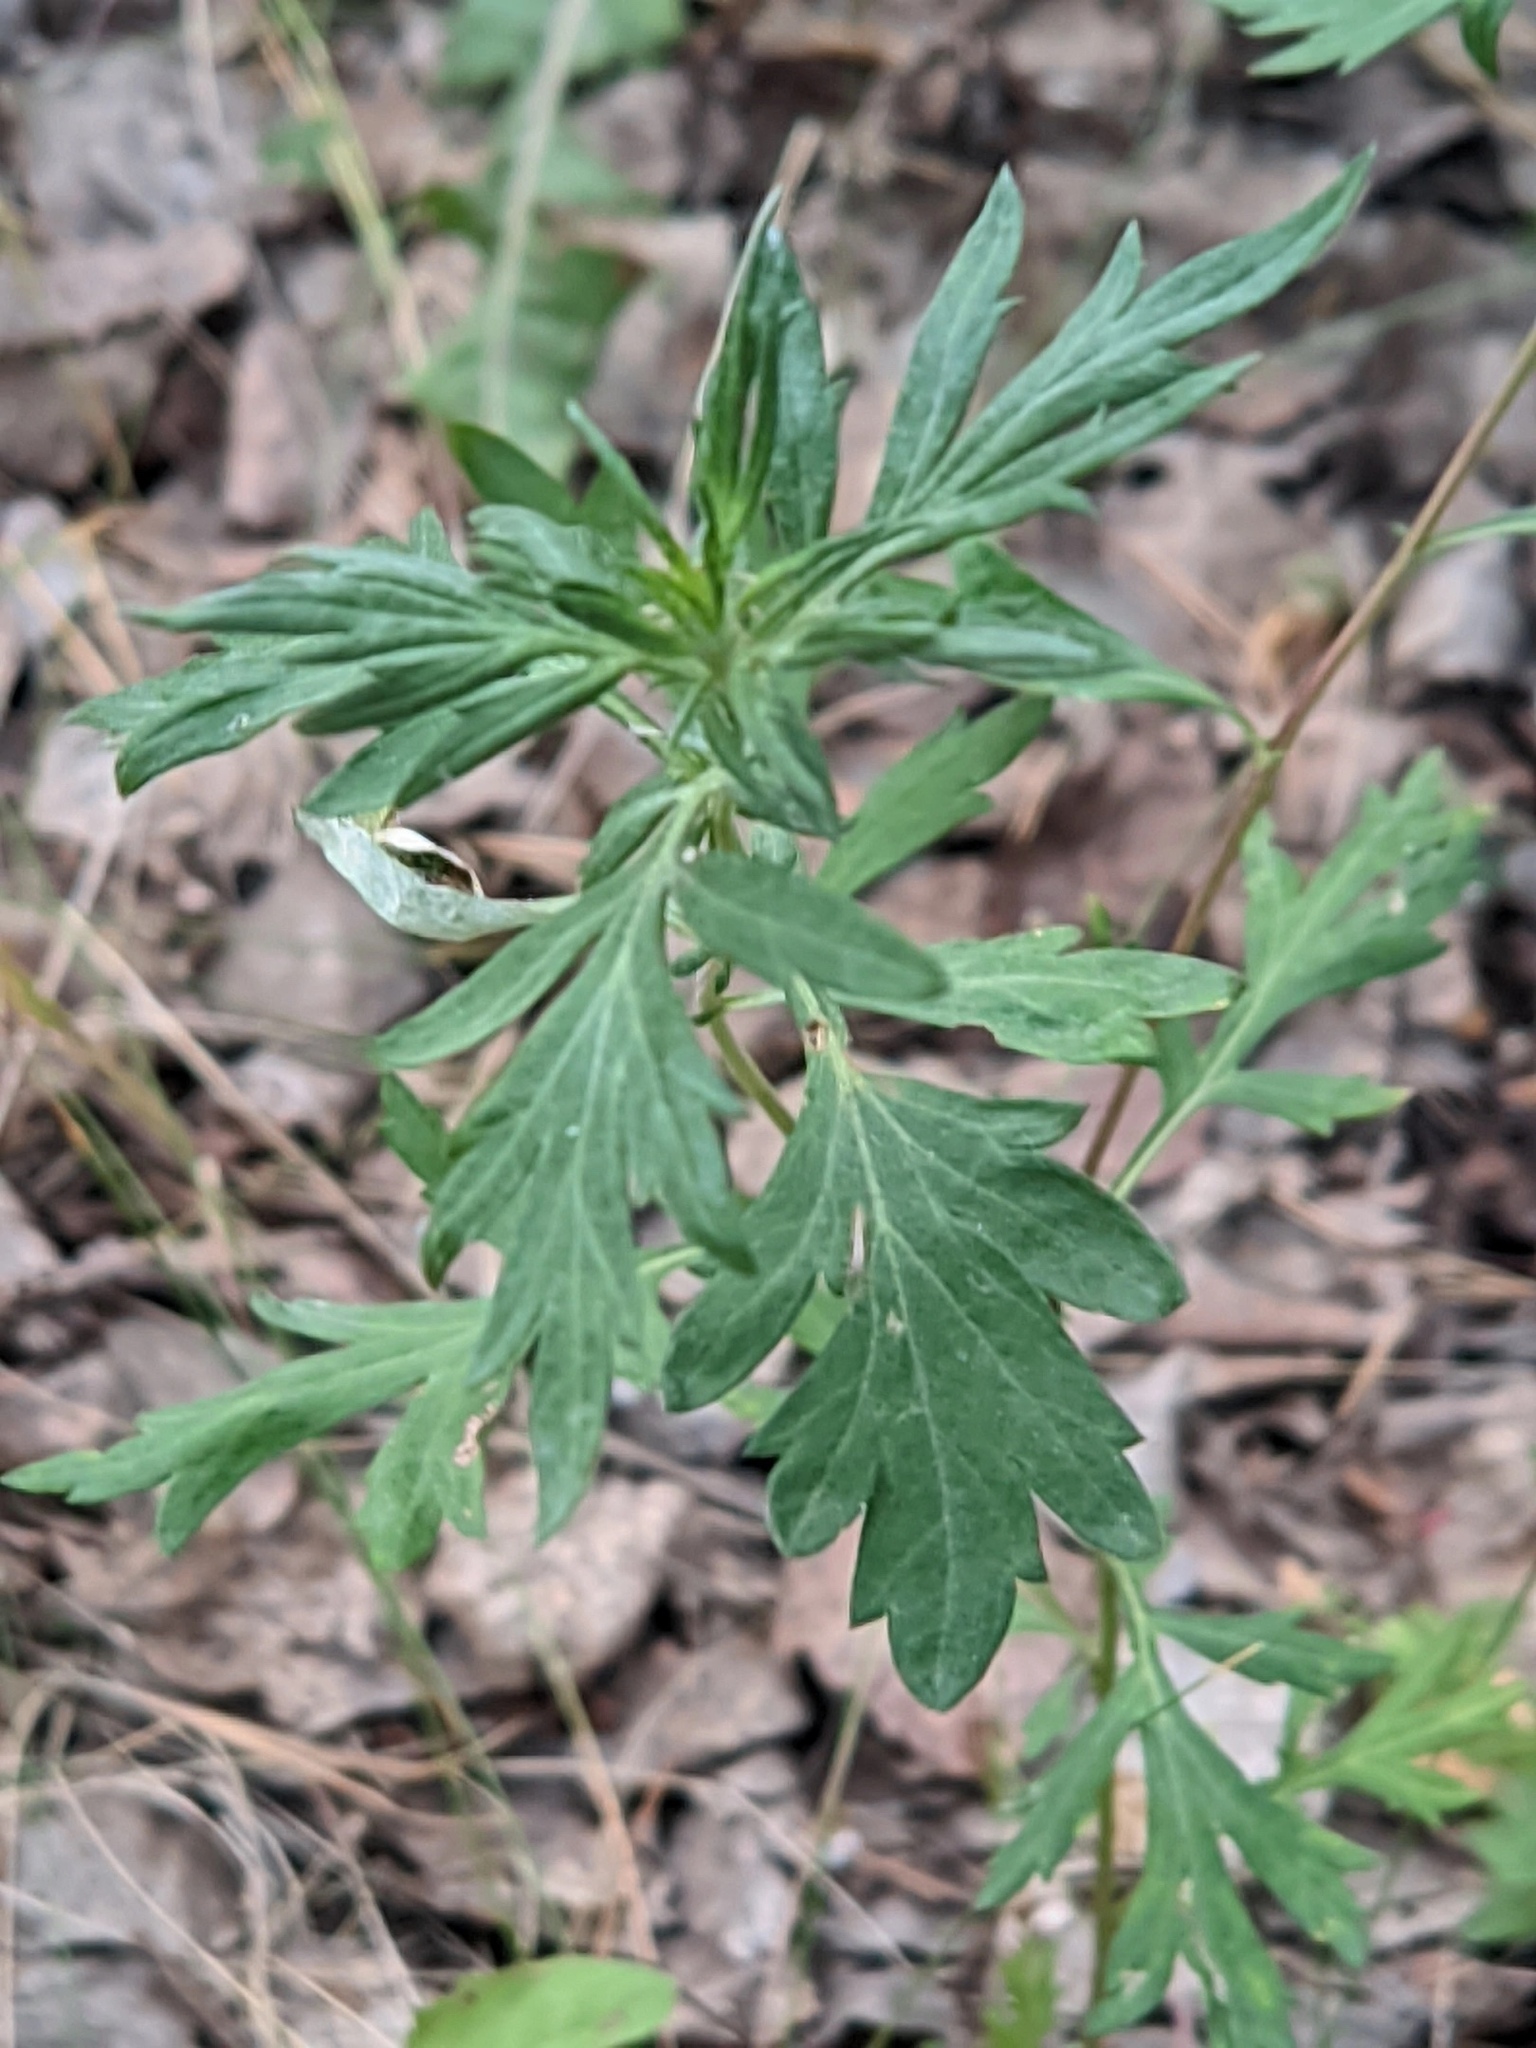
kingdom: Plantae
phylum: Tracheophyta
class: Magnoliopsida
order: Asterales
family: Asteraceae
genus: Artemisia
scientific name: Artemisia vulgaris
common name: Mugwort
